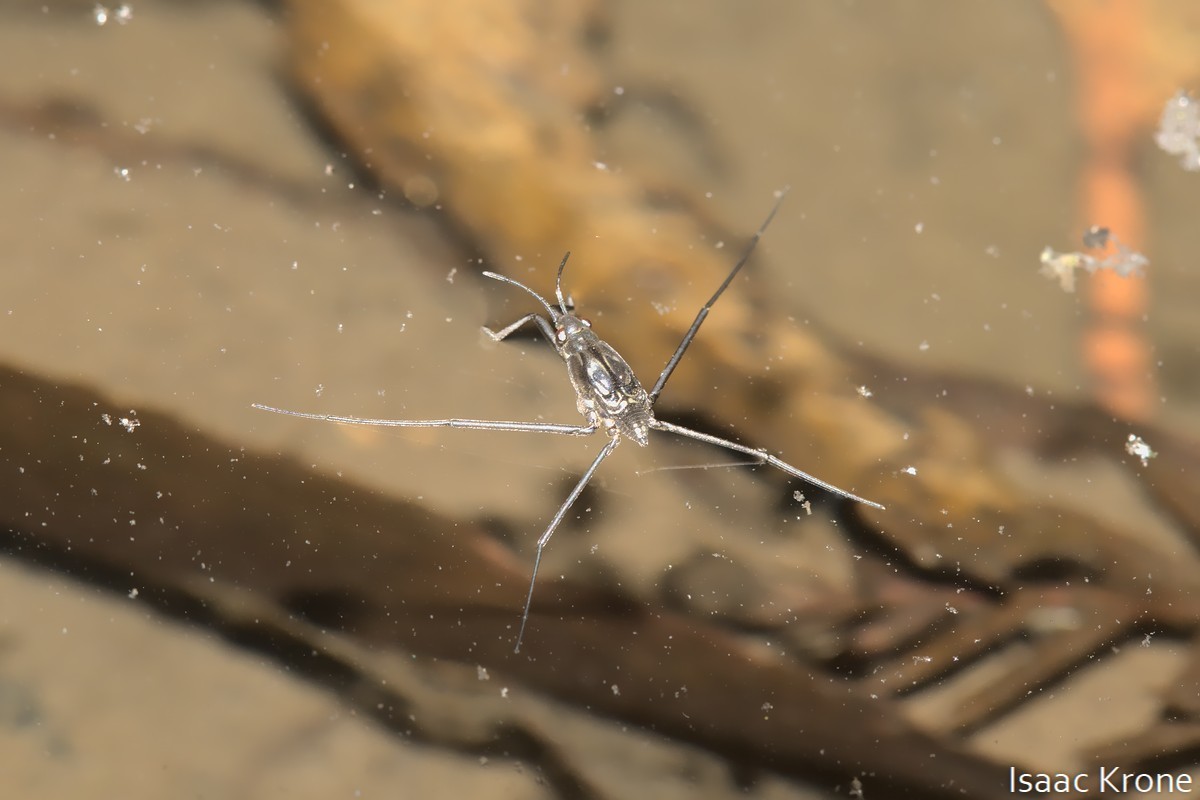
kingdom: Animalia
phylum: Arthropoda
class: Insecta
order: Hemiptera
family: Gerridae
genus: Aquarius
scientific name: Aquarius remigis
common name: Common water strider
